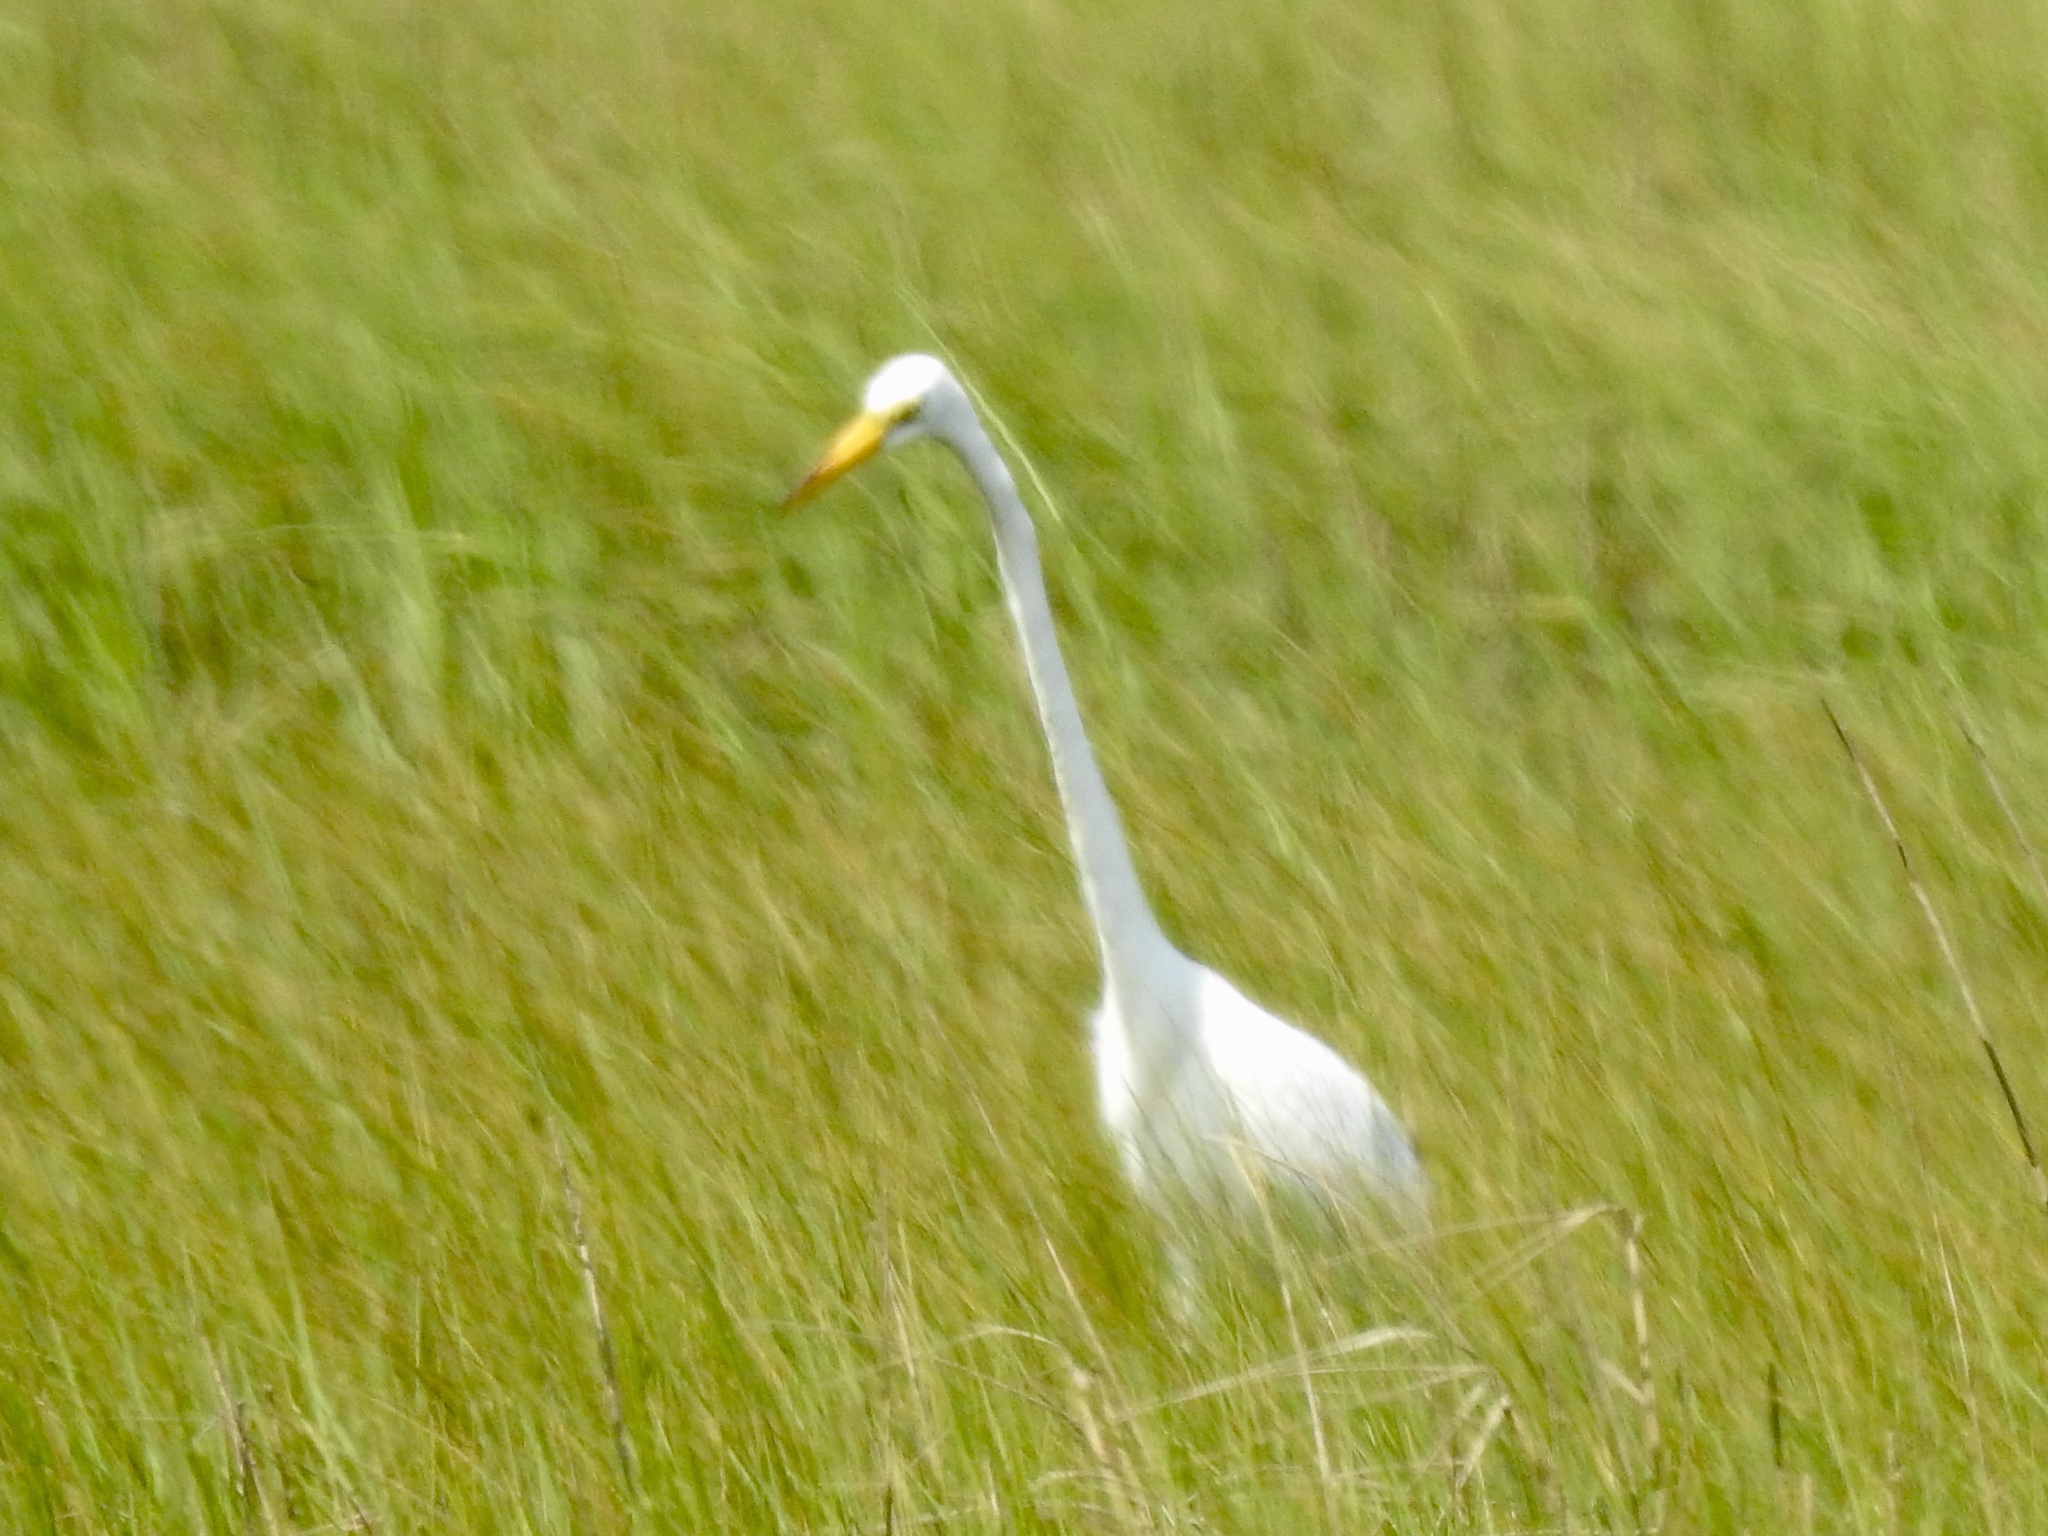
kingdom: Animalia
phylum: Chordata
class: Aves
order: Pelecaniformes
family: Ardeidae
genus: Ardea
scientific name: Ardea alba
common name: Great egret
